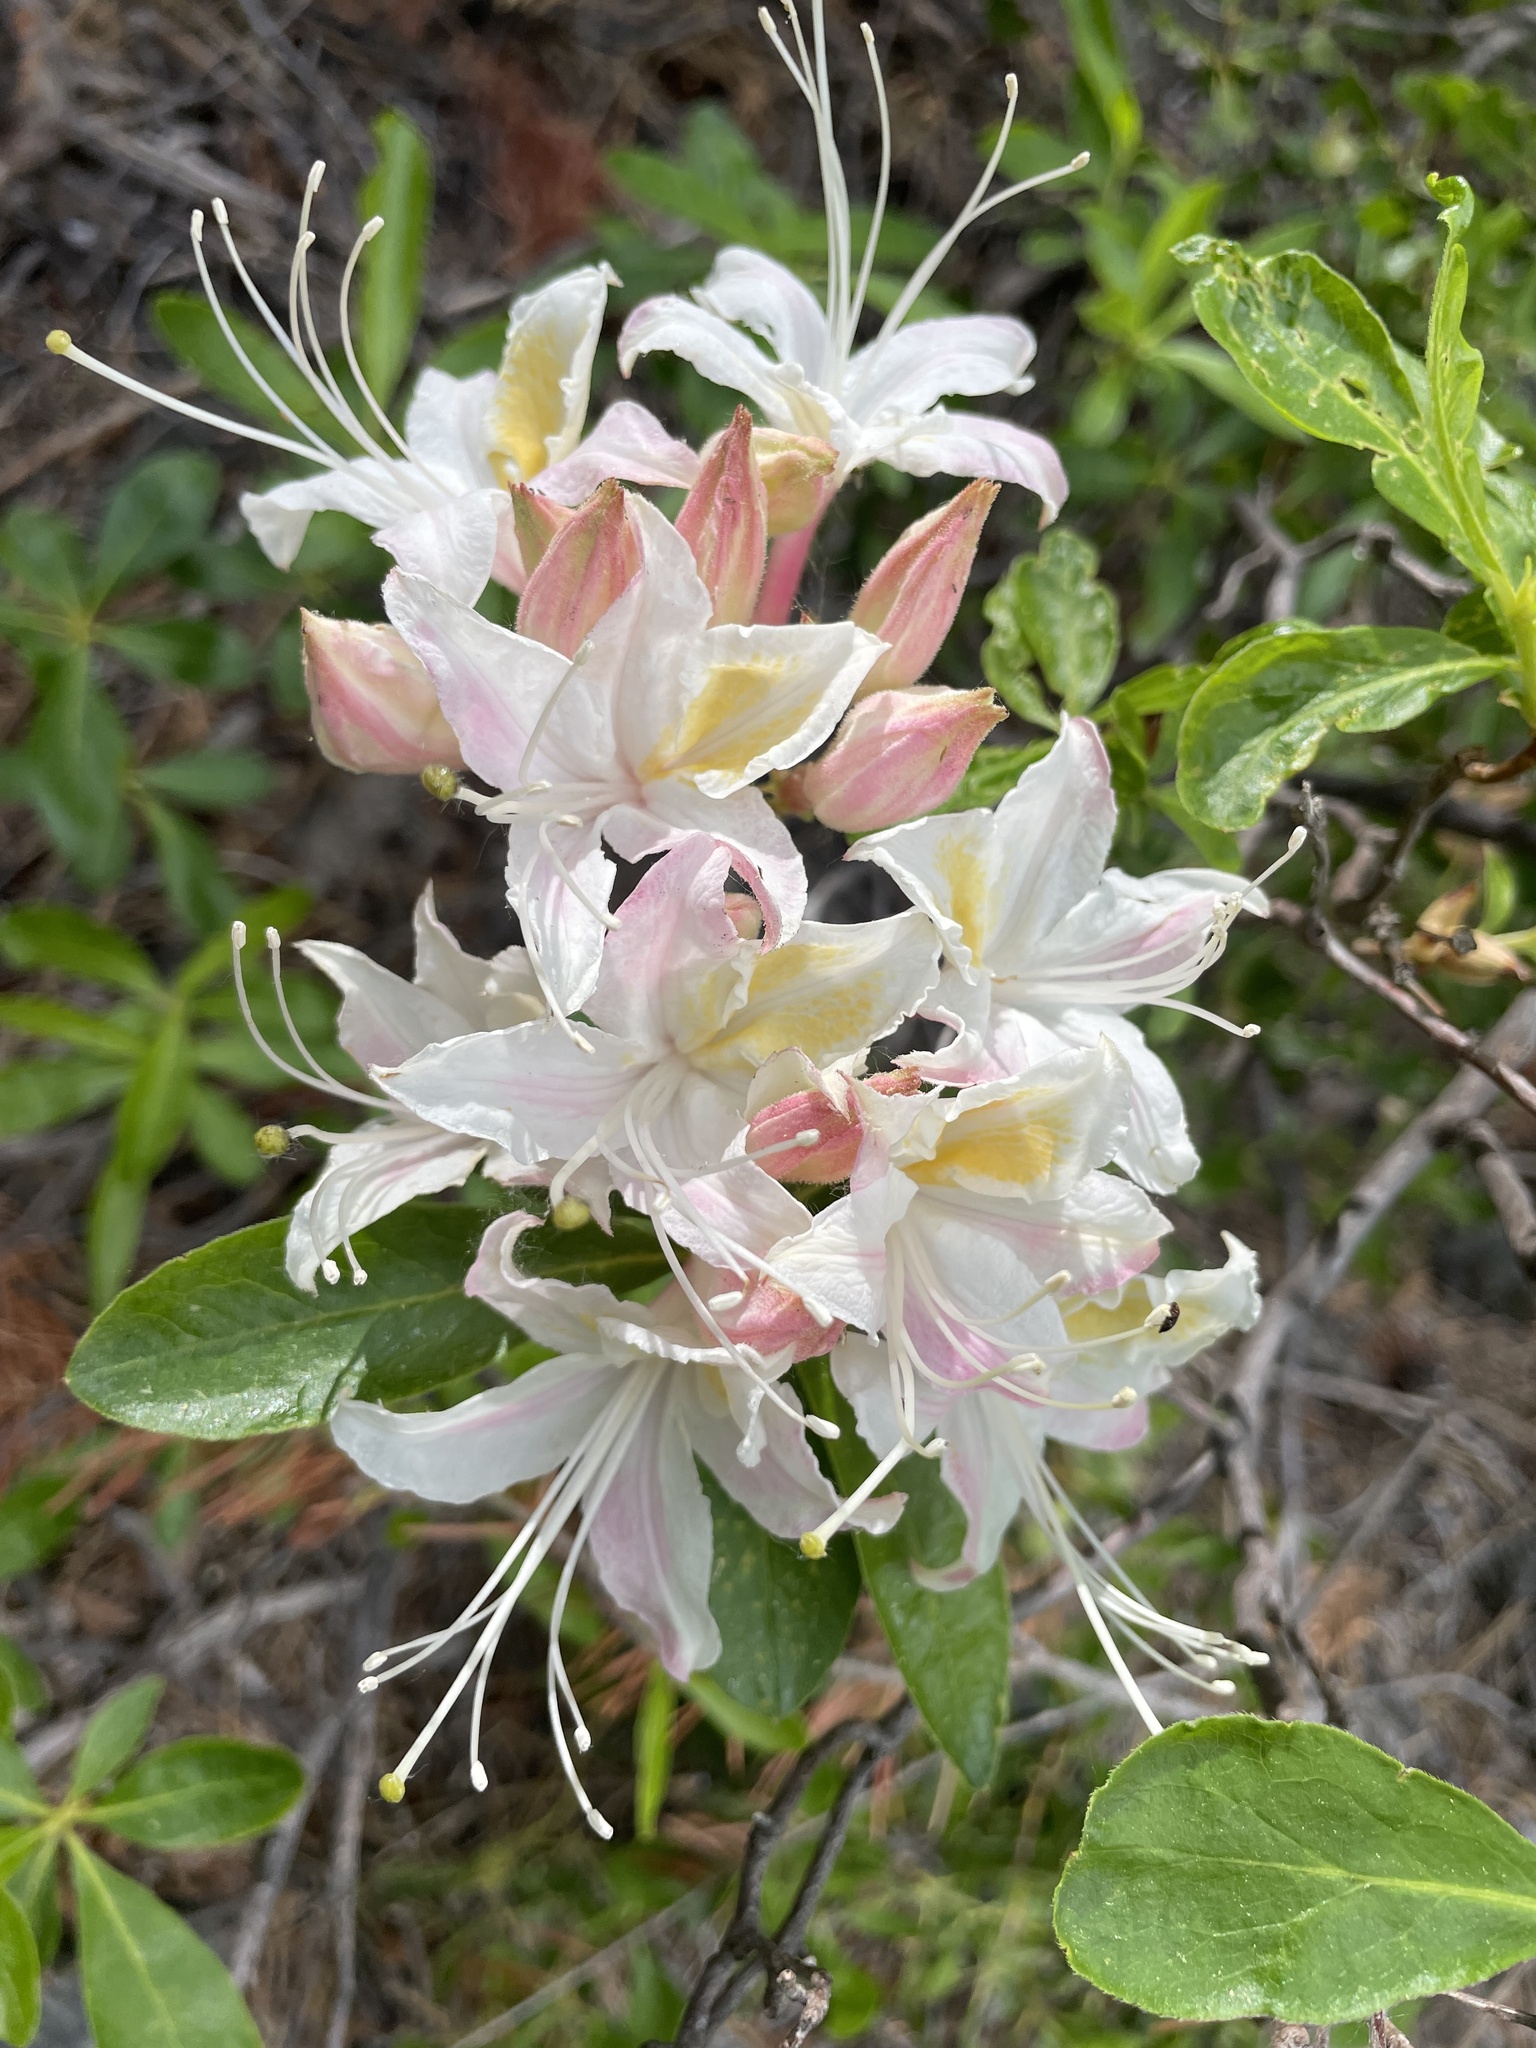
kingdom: Plantae
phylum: Tracheophyta
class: Magnoliopsida
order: Ericales
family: Ericaceae
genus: Rhododendron
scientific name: Rhododendron occidentale
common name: Western azalea
